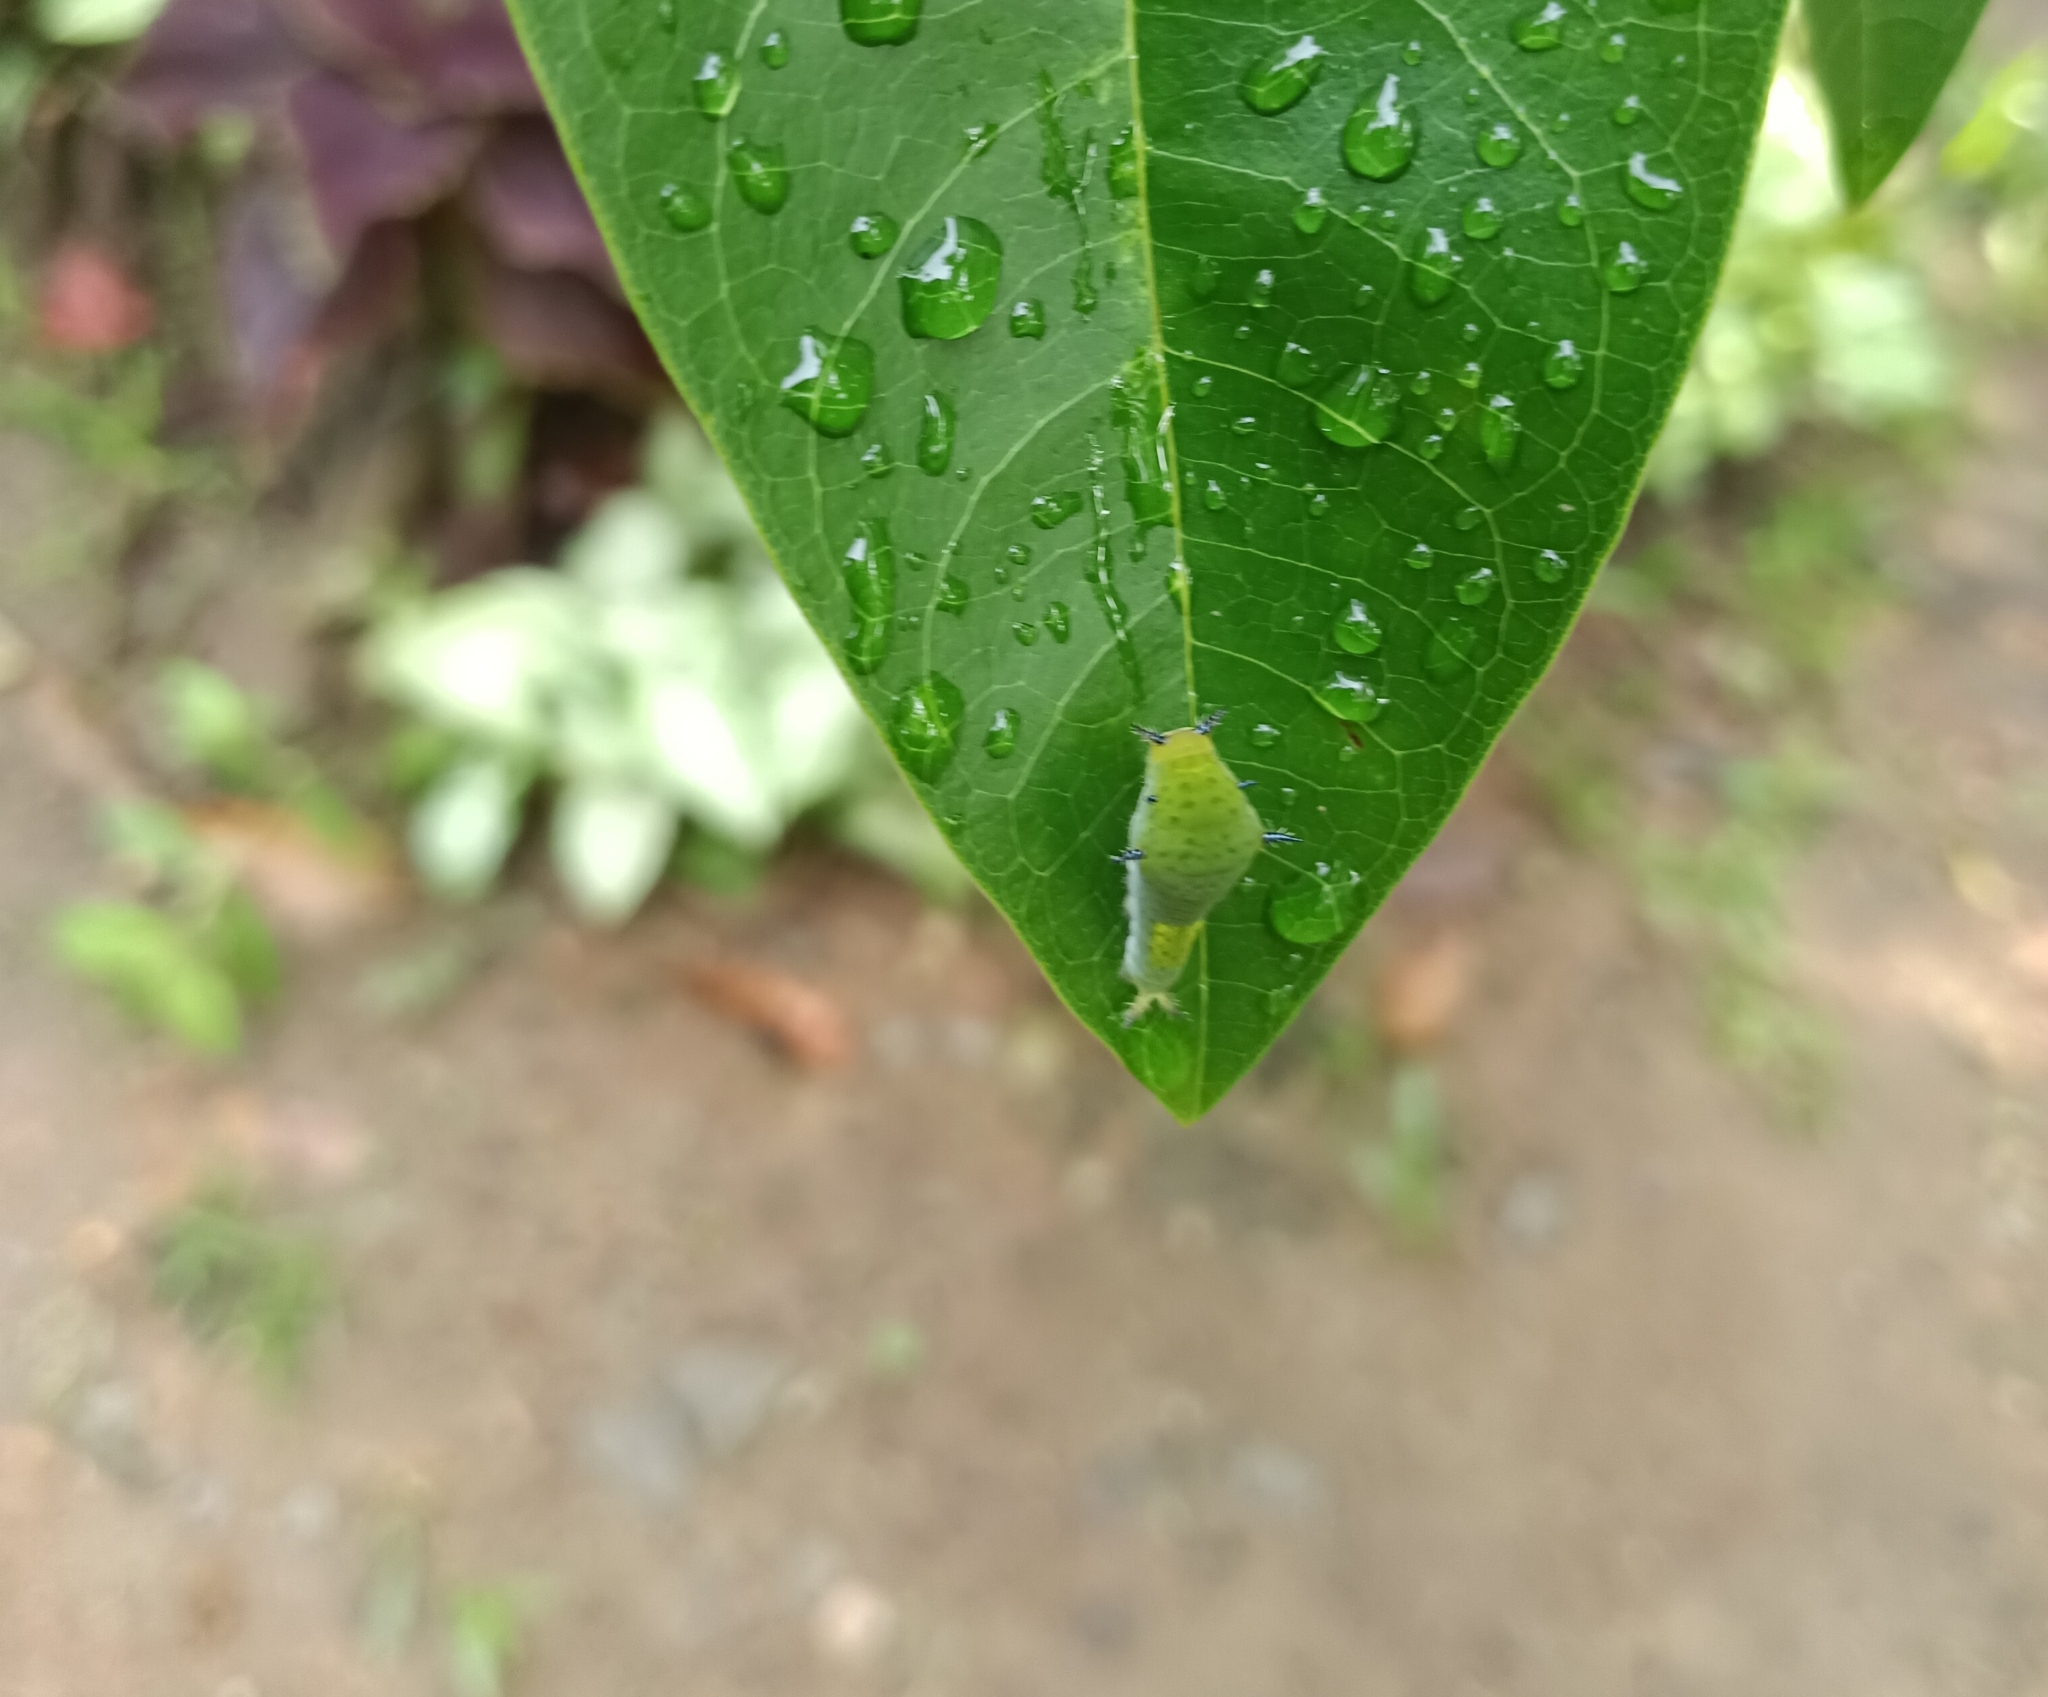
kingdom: Animalia
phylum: Arthropoda
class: Insecta
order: Lepidoptera
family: Papilionidae
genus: Graphium
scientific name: Graphium agamemnon
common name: Tailed jay
